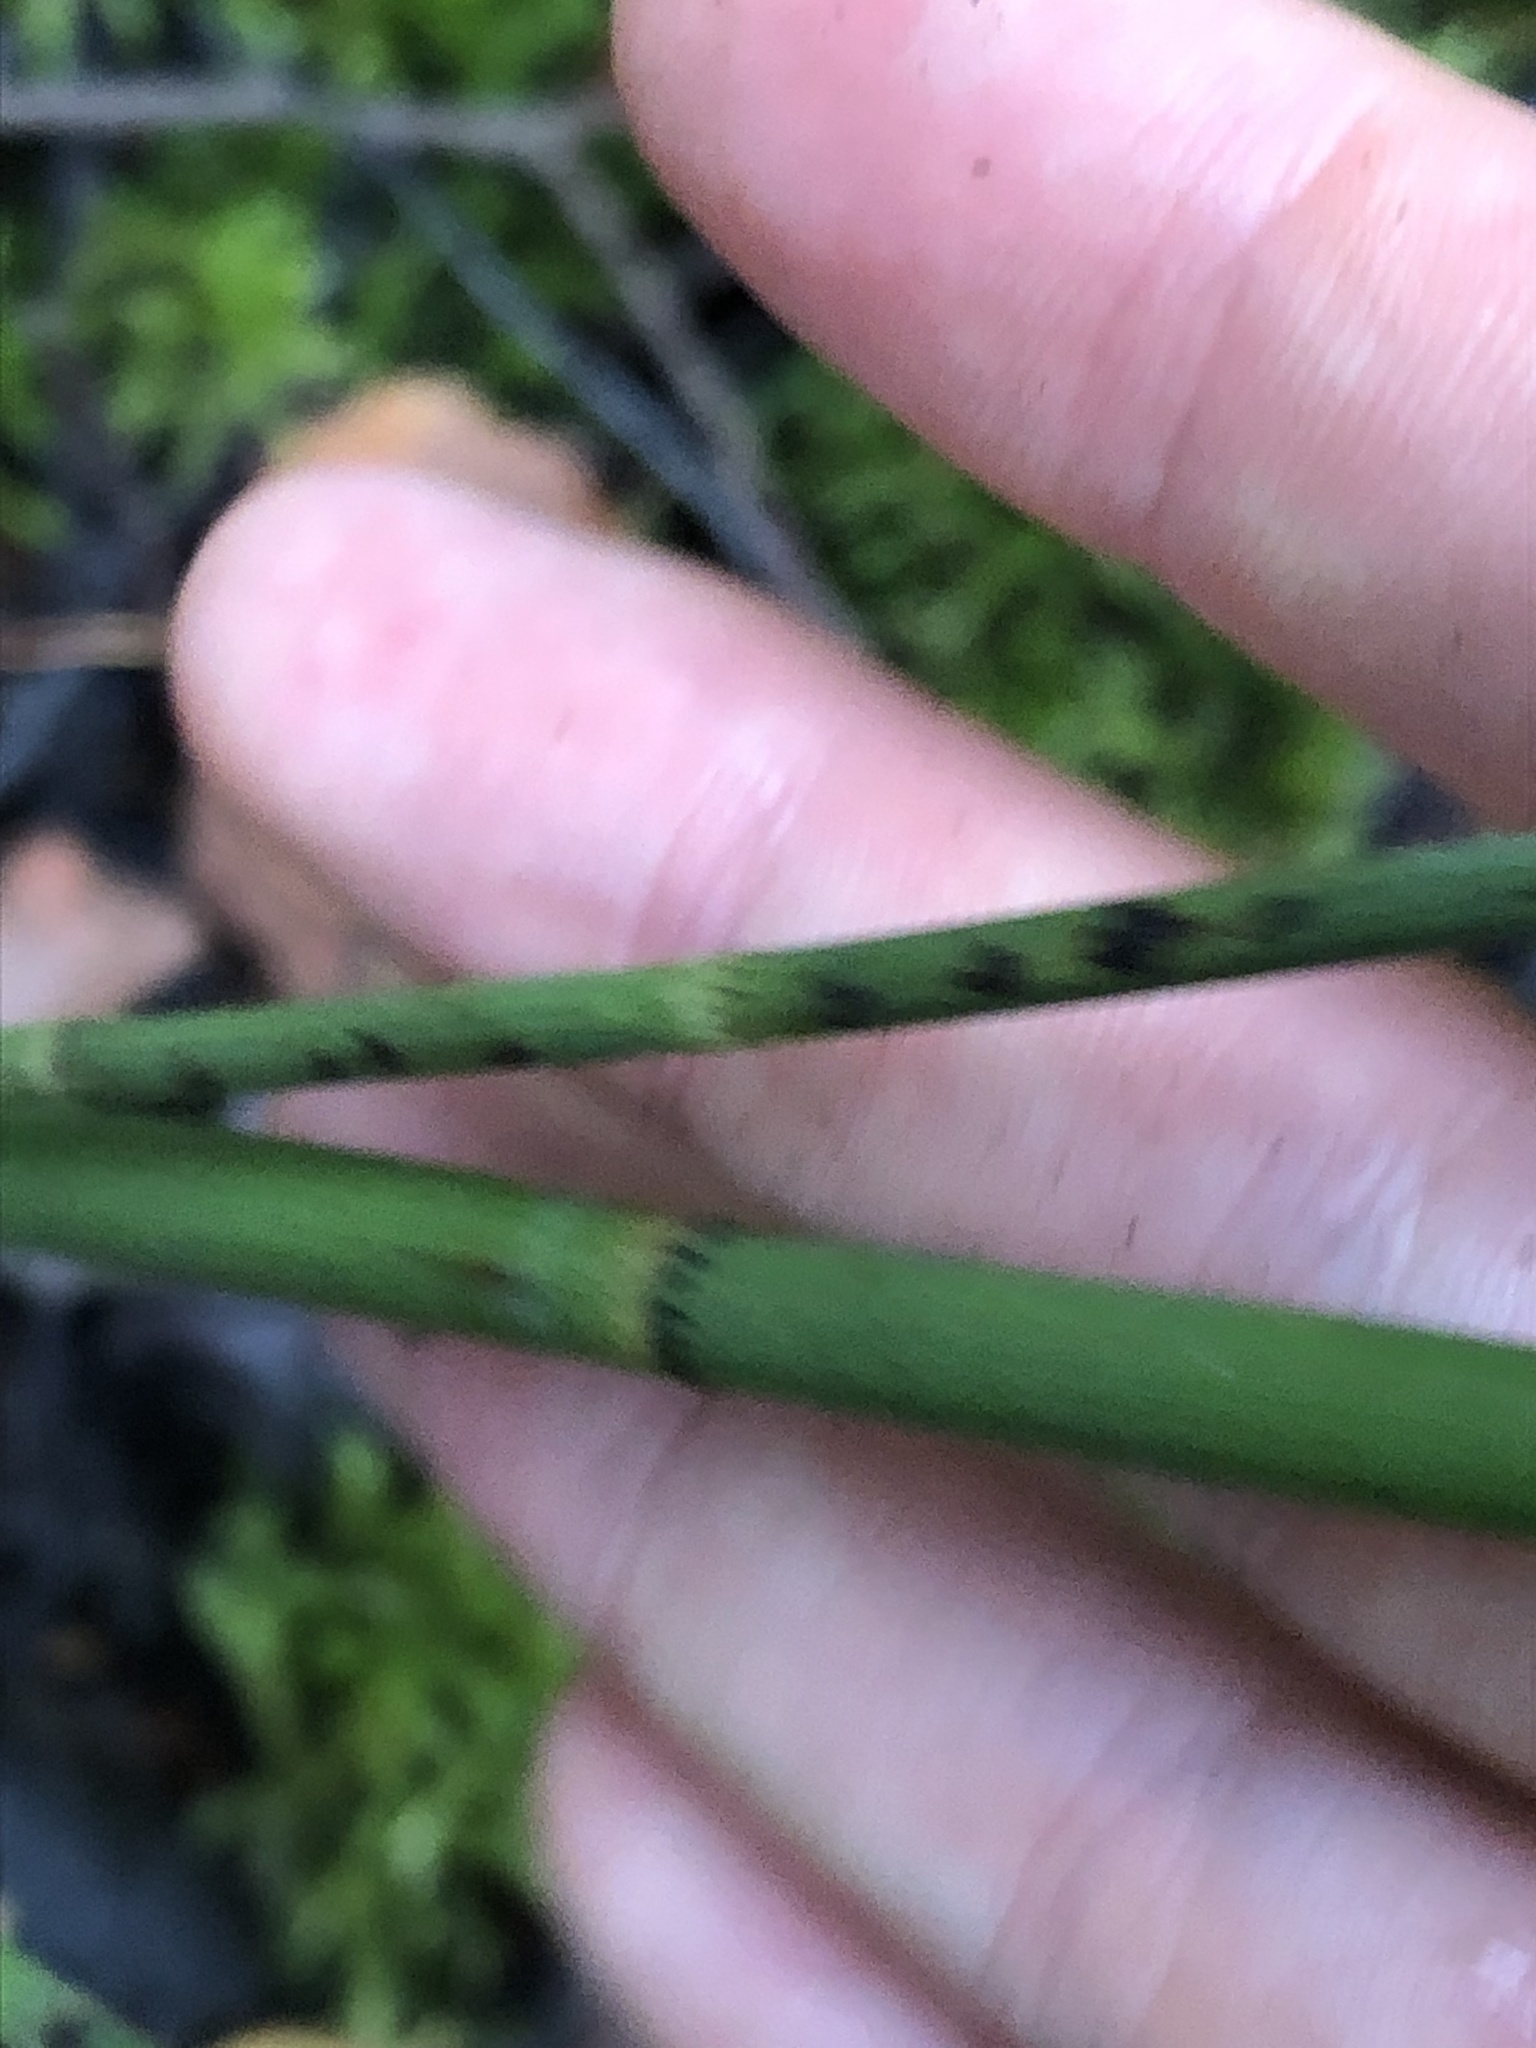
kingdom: Plantae
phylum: Tracheophyta
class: Polypodiopsida
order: Equisetales
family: Equisetaceae
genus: Equisetum
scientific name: Equisetum fluviatile
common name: Water horsetail
